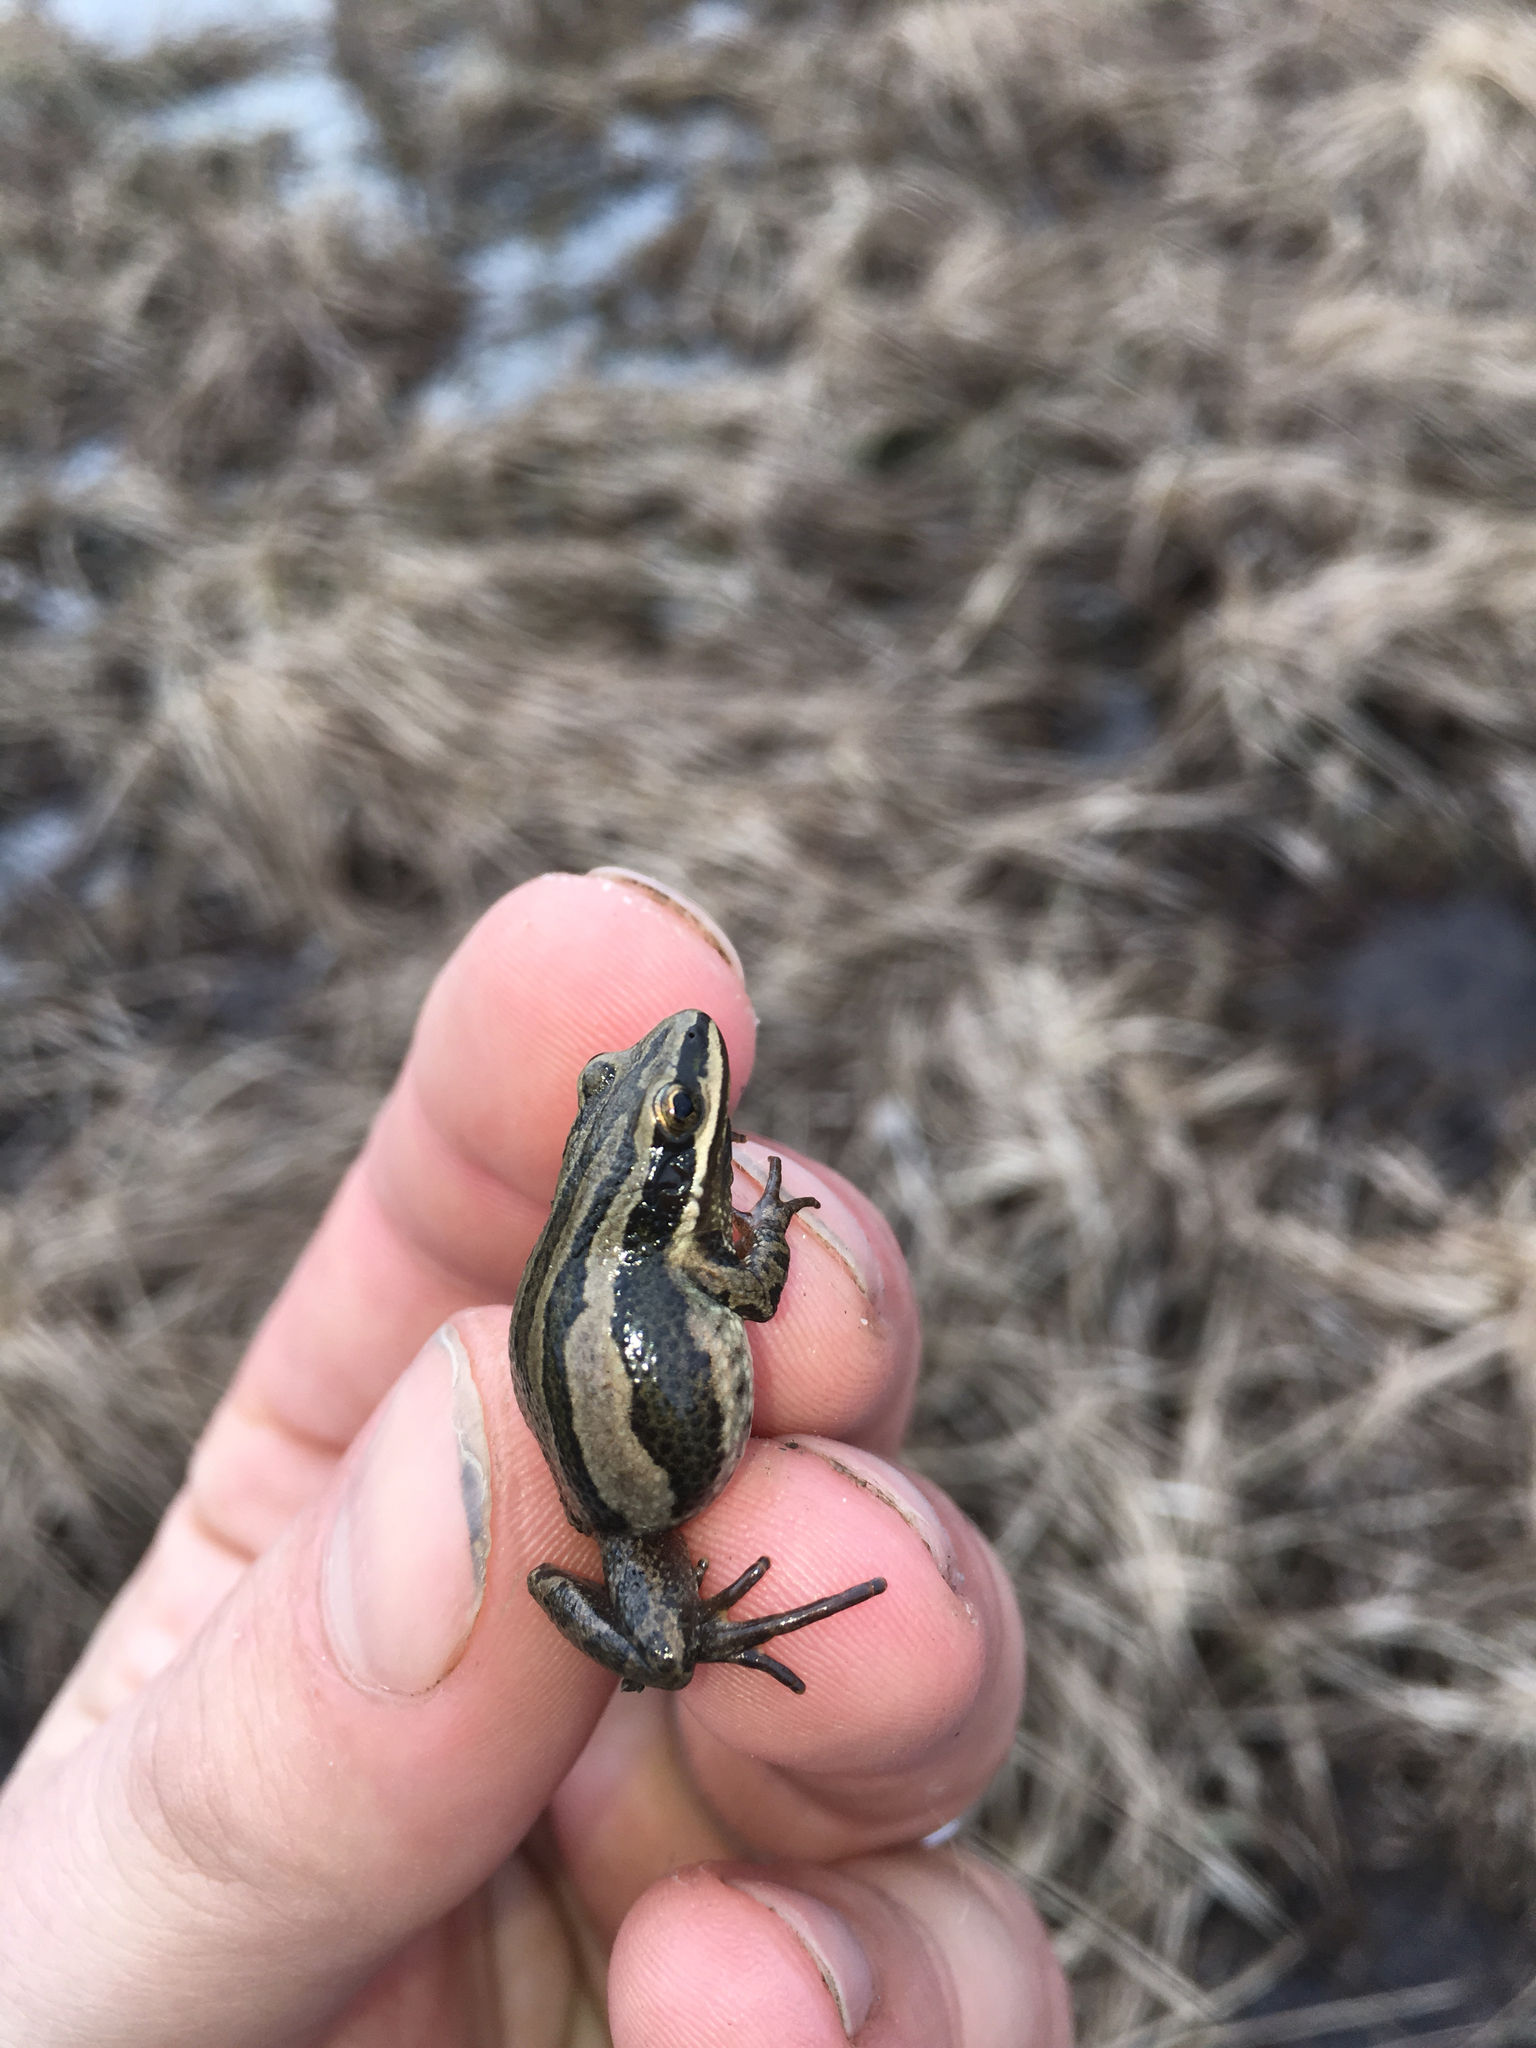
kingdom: Animalia
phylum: Chordata
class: Amphibia
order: Anura
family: Hylidae
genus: Pseudacris
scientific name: Pseudacris maculata
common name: Boreal chorus frog
